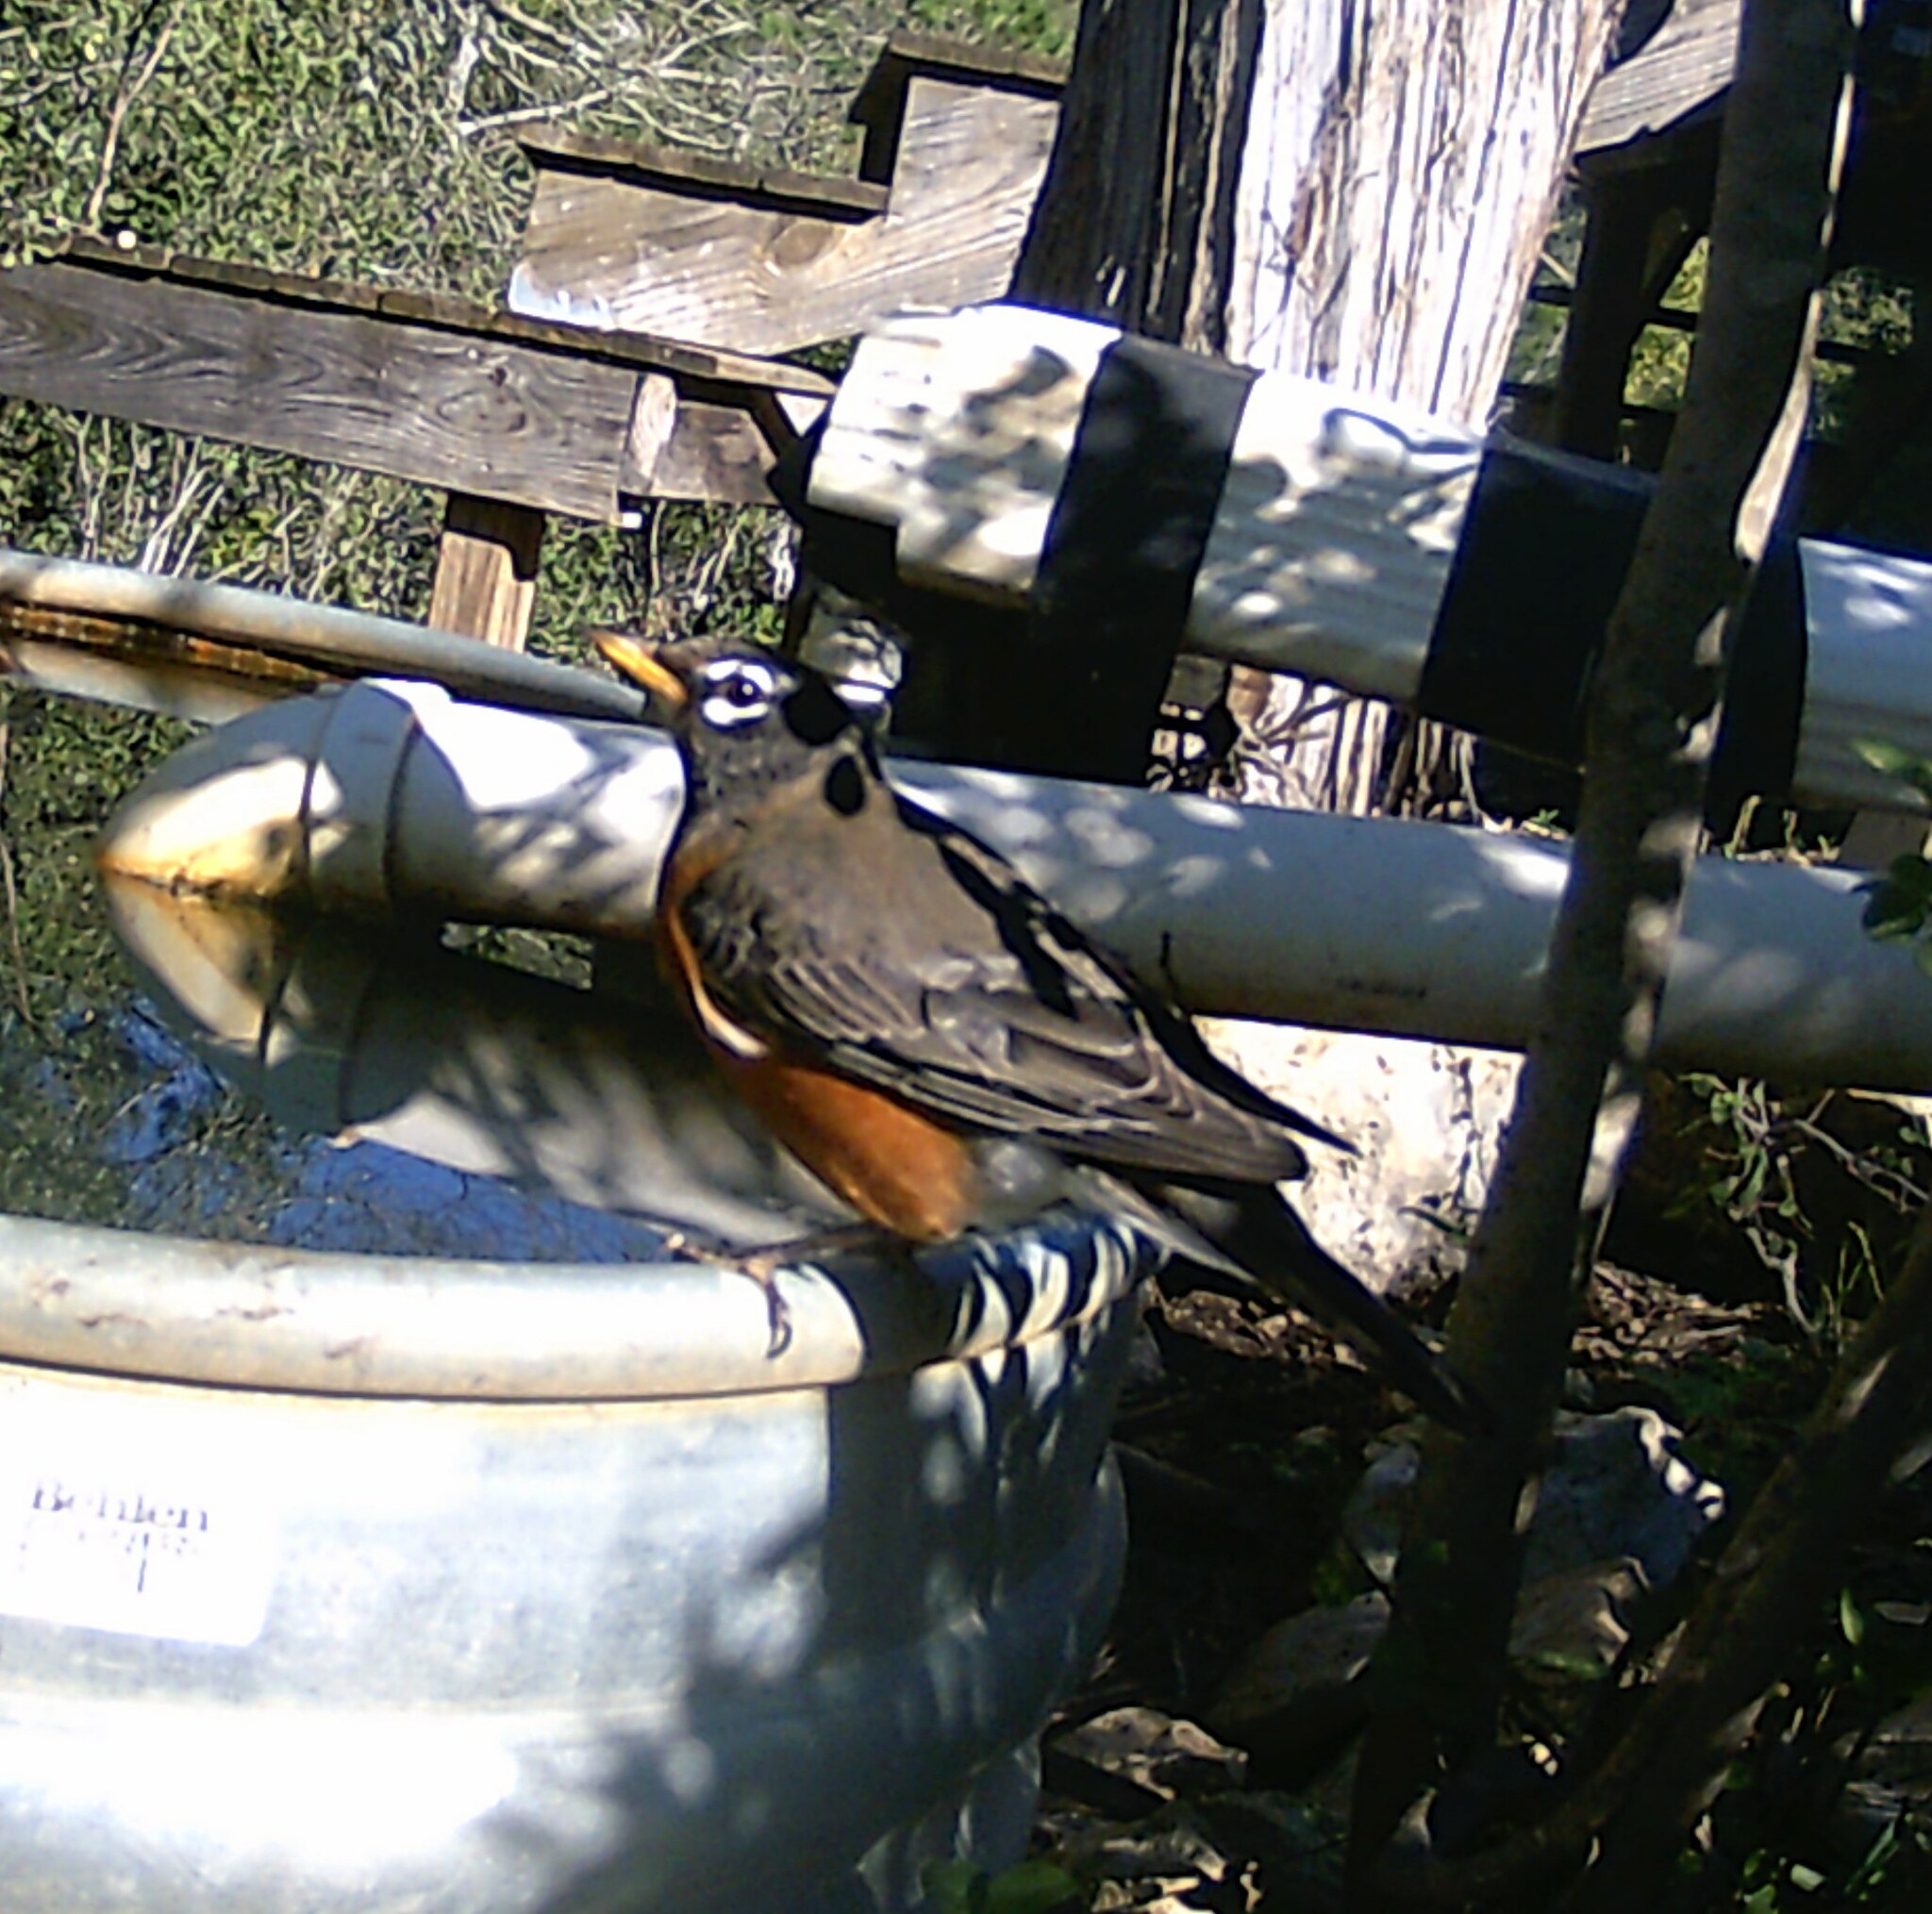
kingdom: Animalia
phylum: Chordata
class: Aves
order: Passeriformes
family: Turdidae
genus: Turdus
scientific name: Turdus migratorius
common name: American robin
